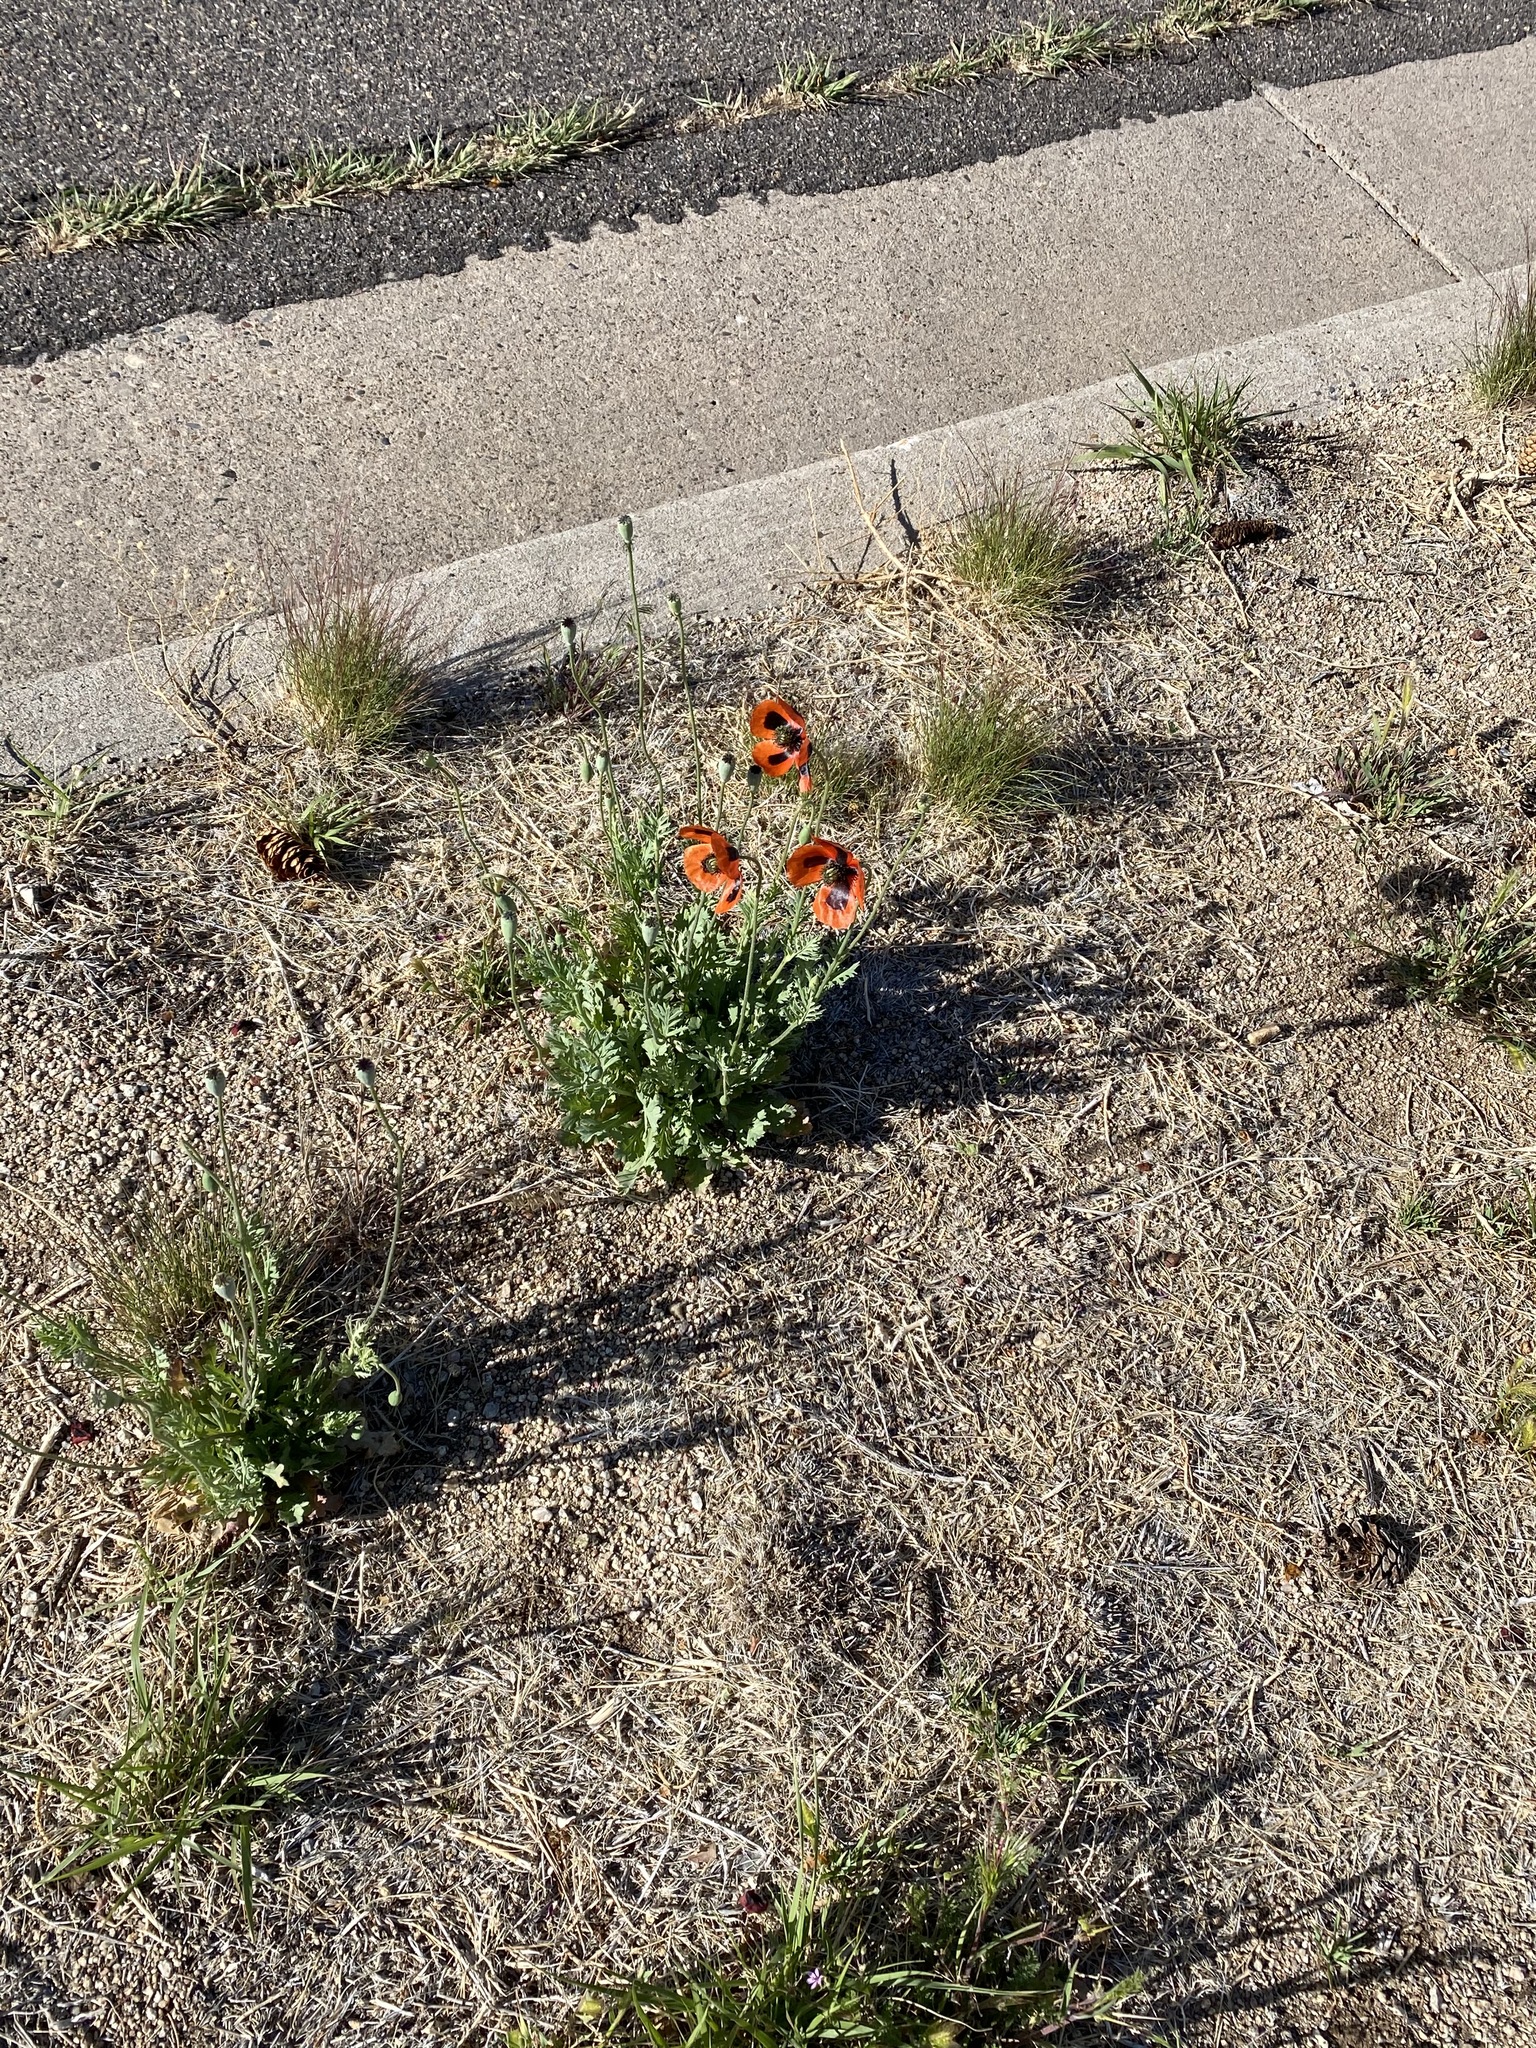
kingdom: Plantae
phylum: Tracheophyta
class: Magnoliopsida
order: Ranunculales
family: Papaveraceae
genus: Papaver
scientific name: Papaver dubium
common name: Long-headed poppy
